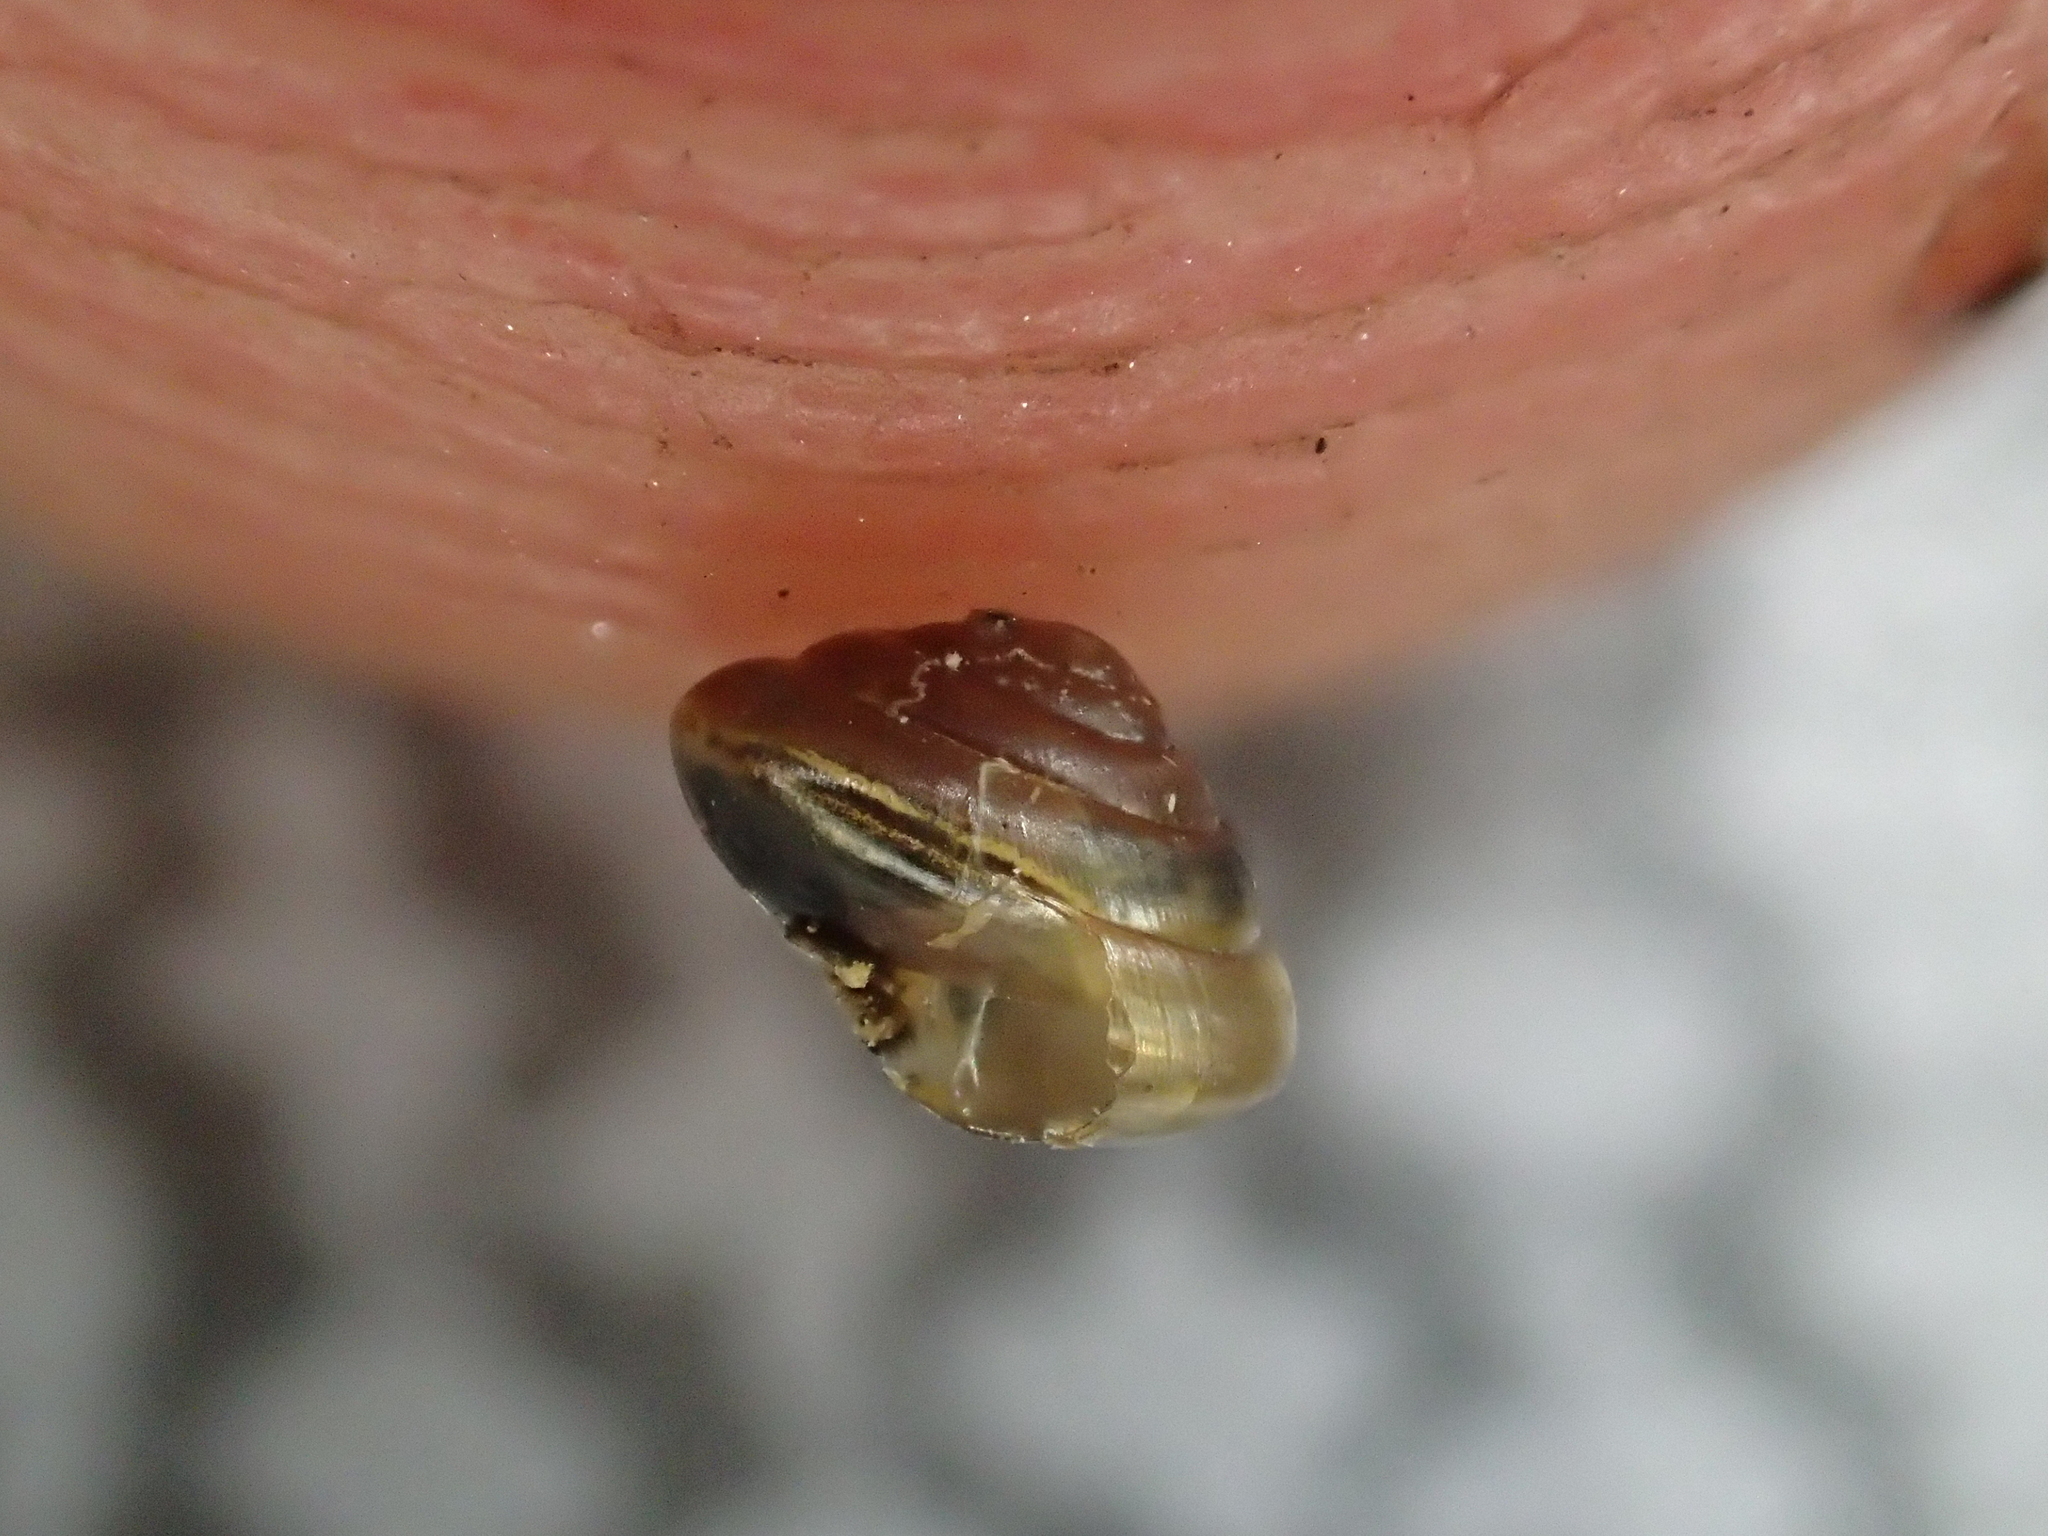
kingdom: Animalia
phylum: Mollusca
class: Gastropoda
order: Stylommatophora
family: Euconulidae
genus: Euconulus
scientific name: Euconulus fulvus
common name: Tawny glass snail
